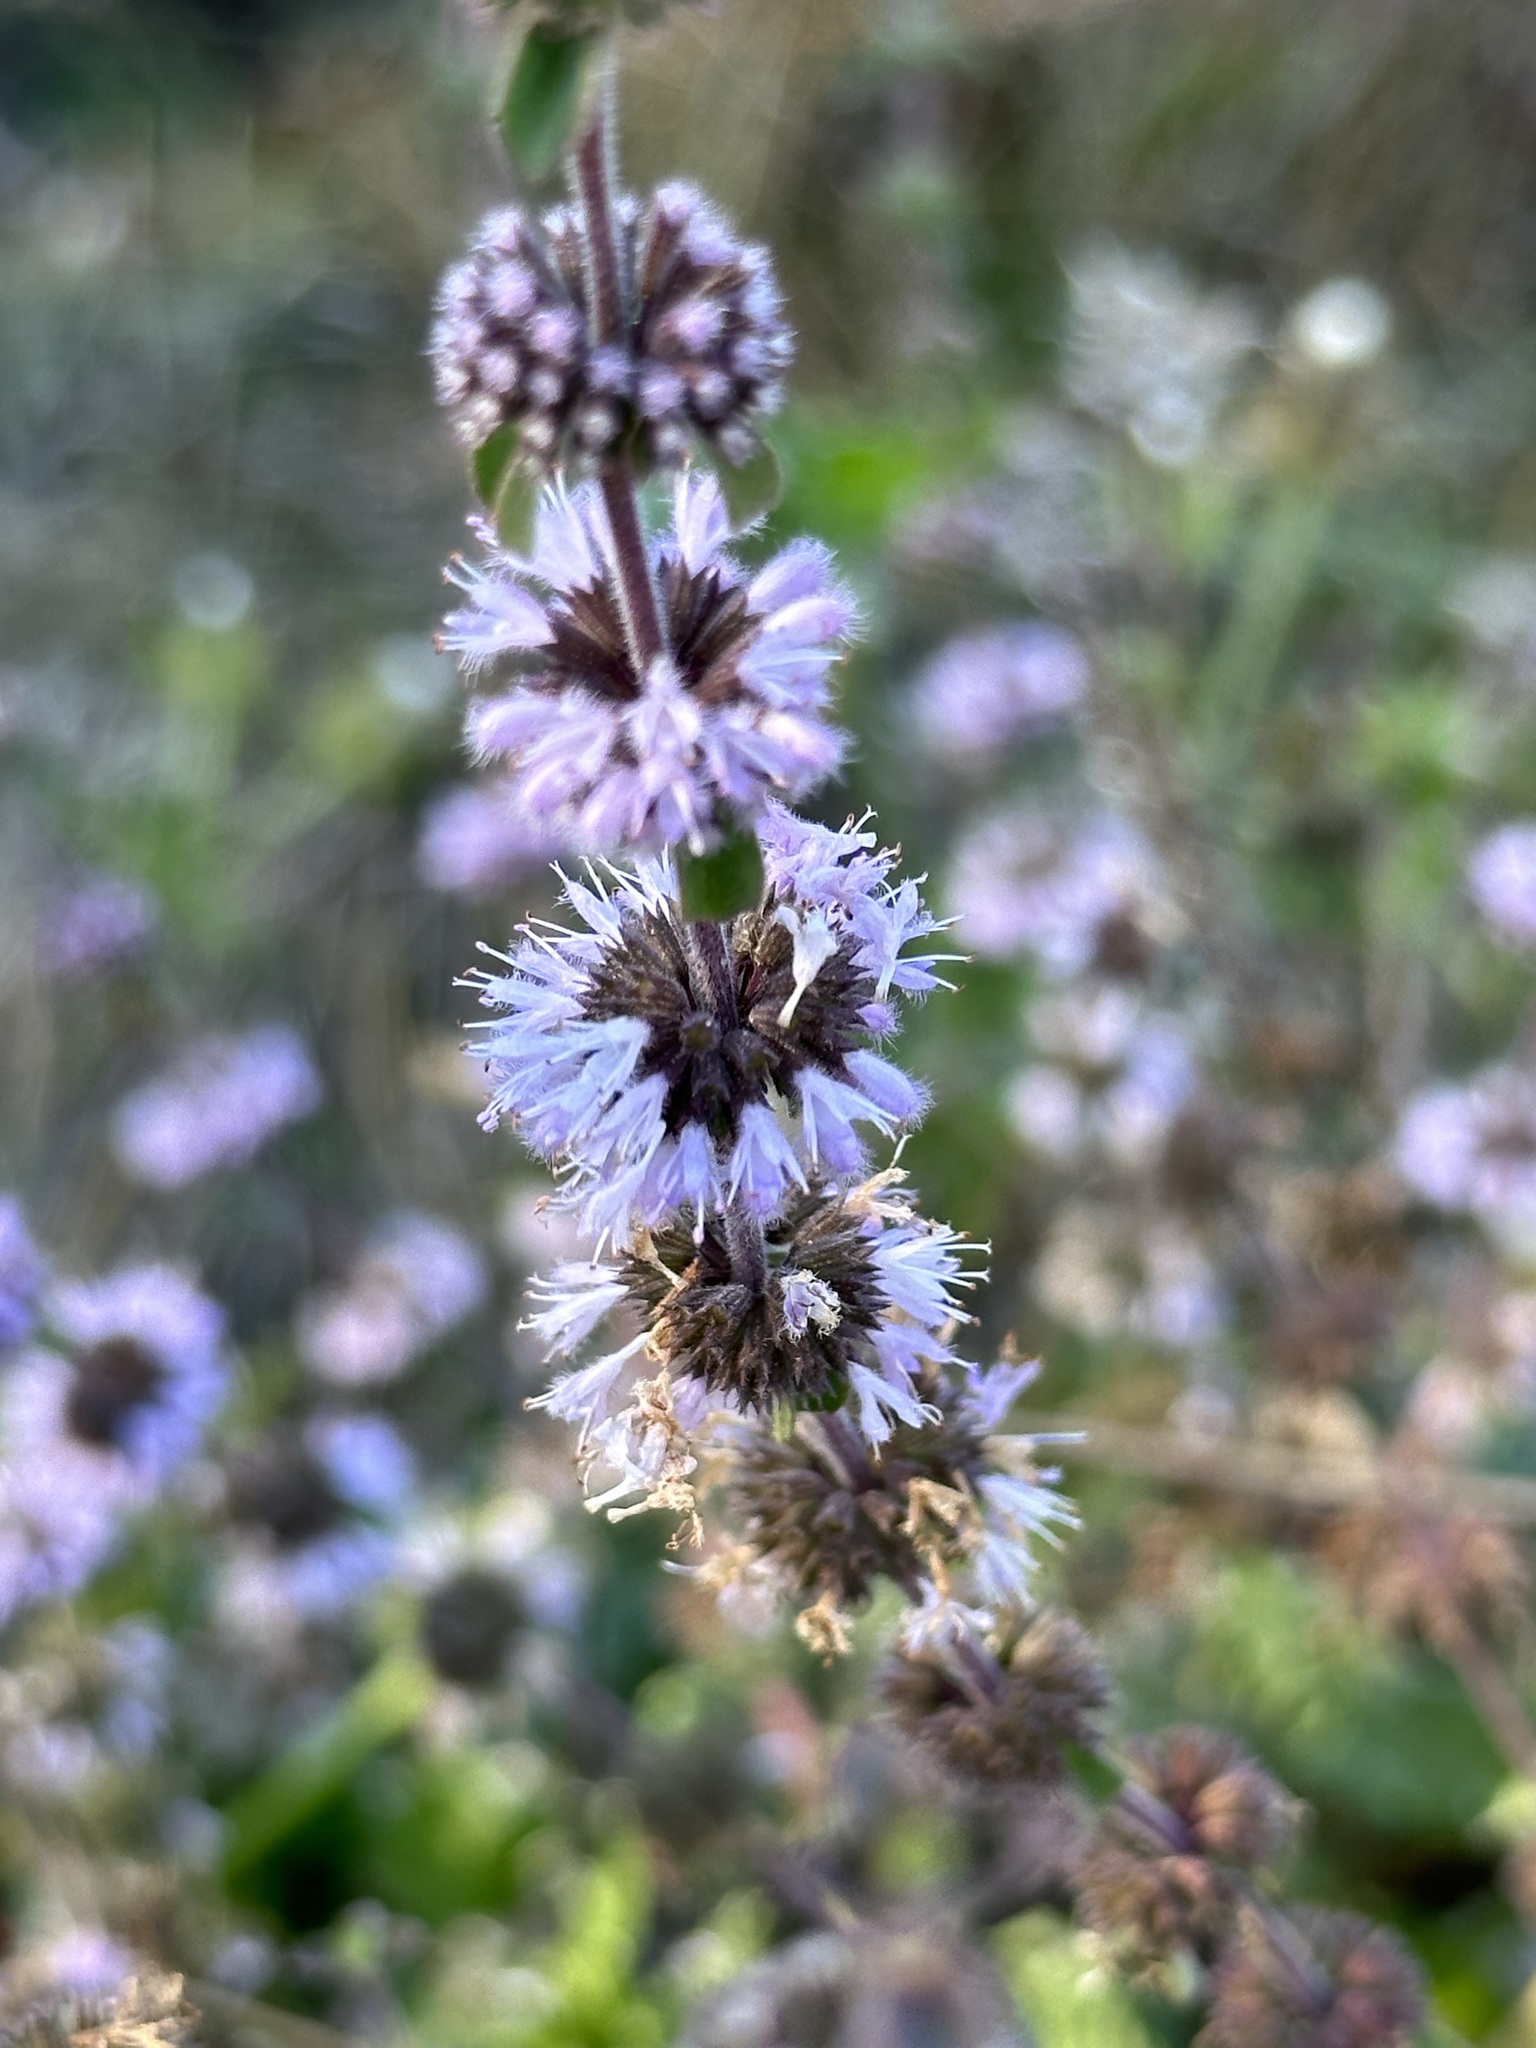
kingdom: Plantae
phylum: Tracheophyta
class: Magnoliopsida
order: Lamiales
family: Lamiaceae
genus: Mentha
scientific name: Mentha pulegium
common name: Pennyroyal
